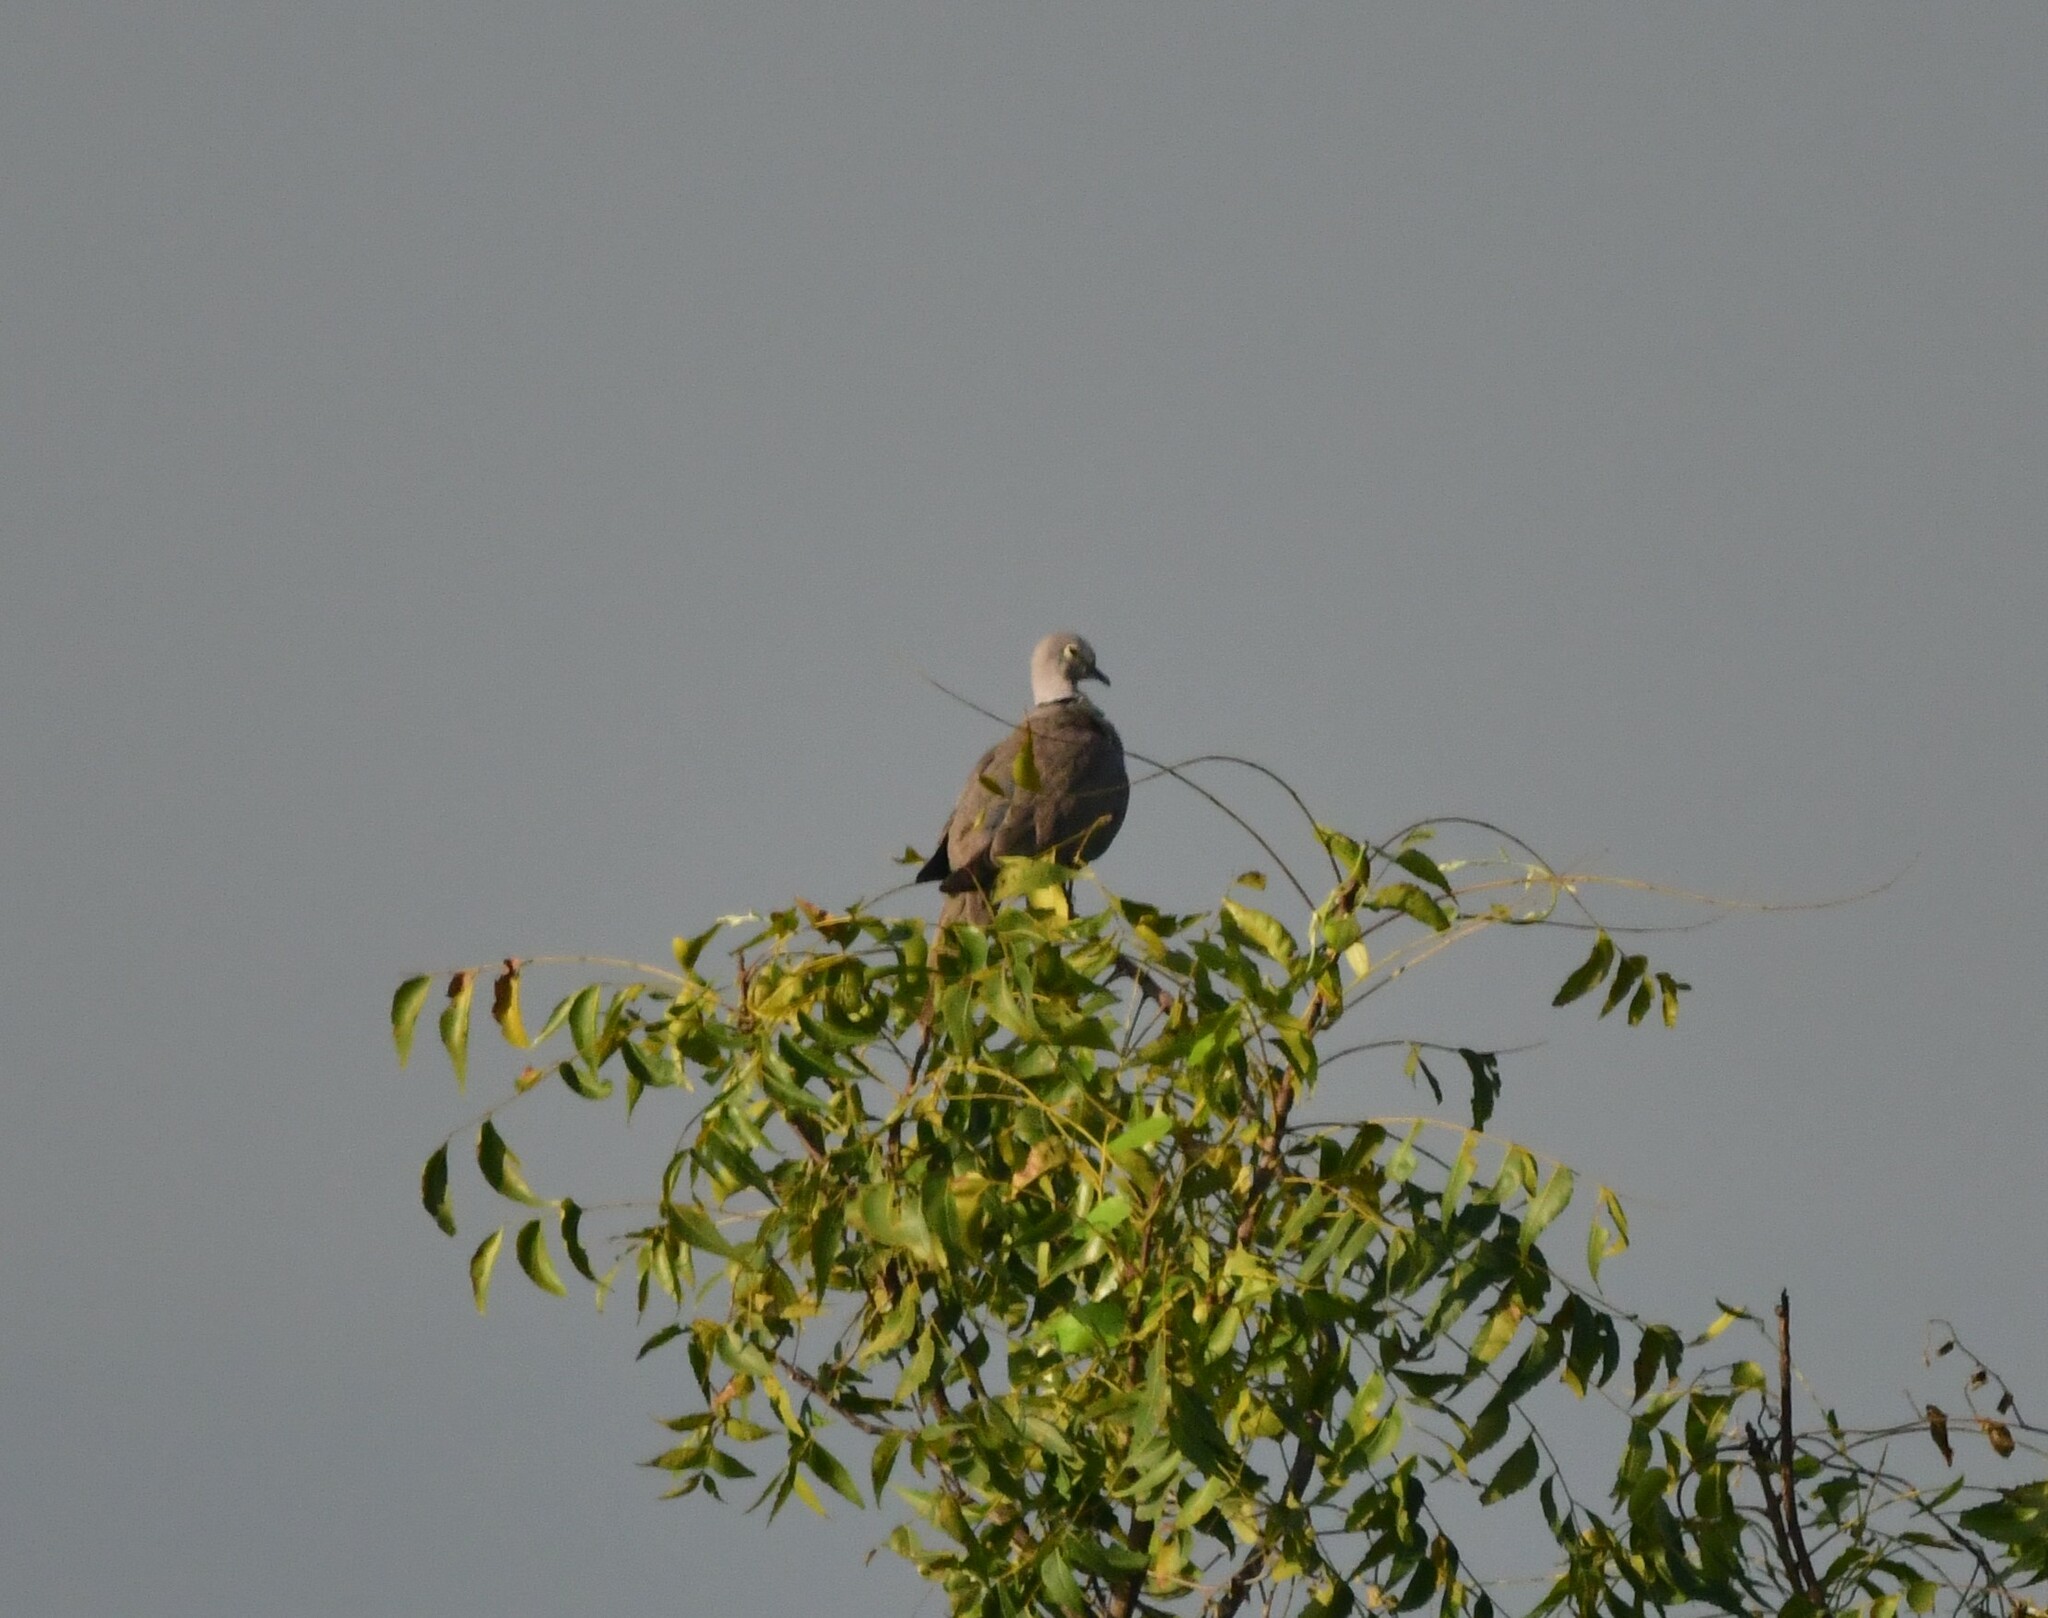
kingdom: Animalia
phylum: Chordata
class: Aves
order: Columbiformes
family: Columbidae
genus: Streptopelia
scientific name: Streptopelia decaocto
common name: Eurasian collared dove
